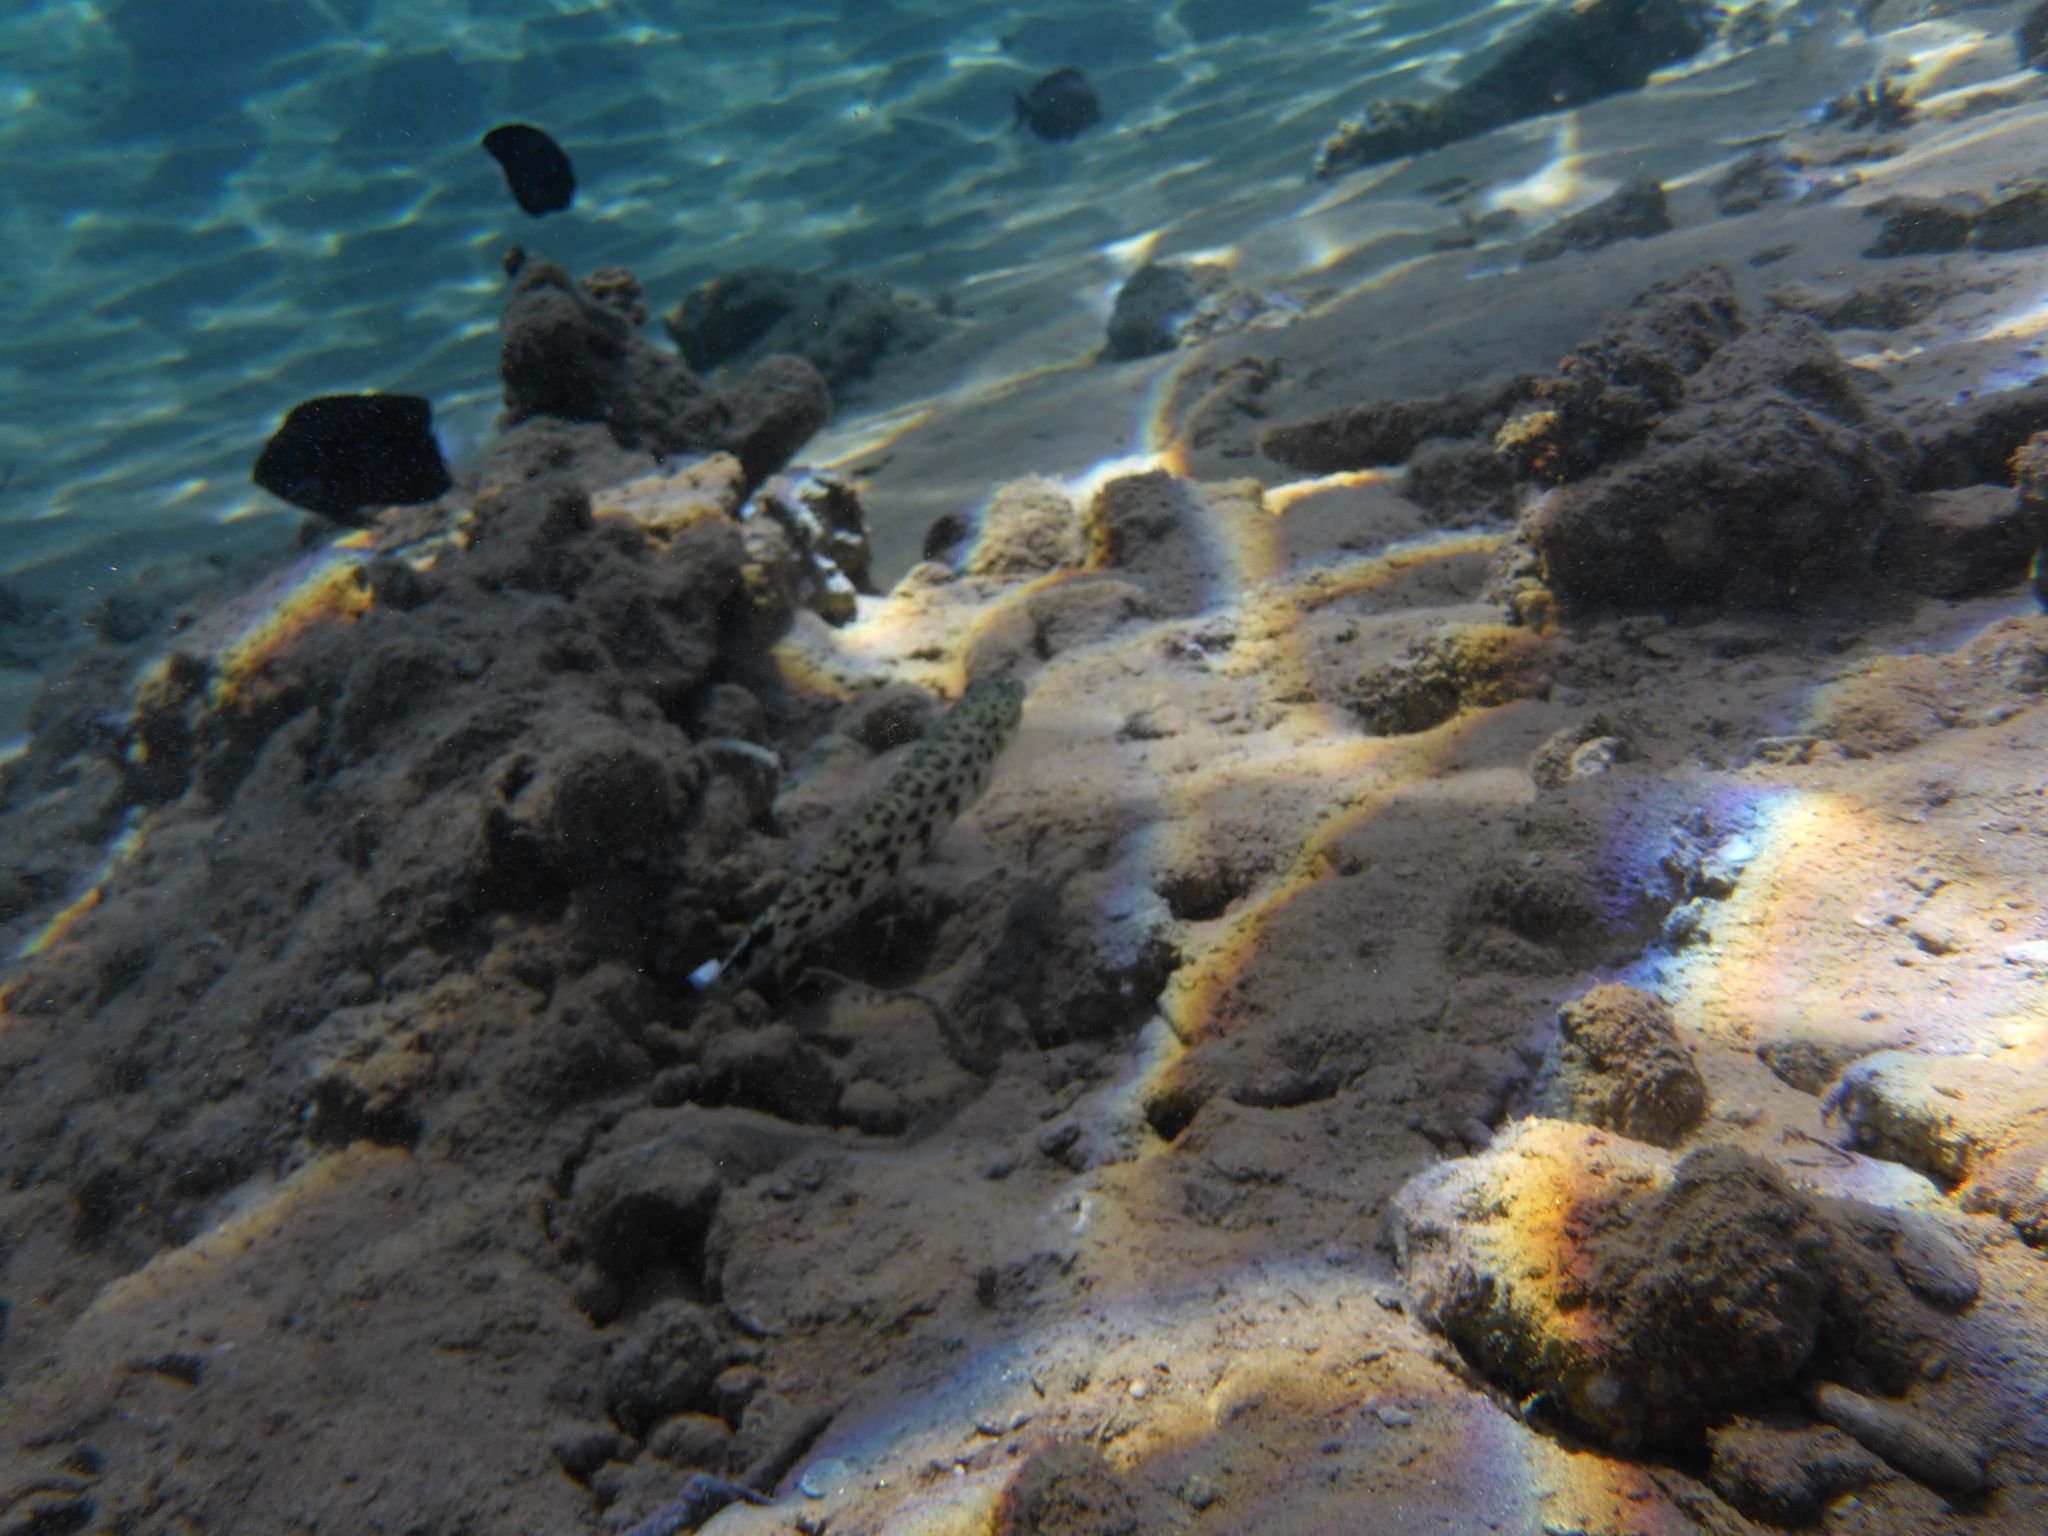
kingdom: Animalia
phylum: Chordata
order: Perciformes
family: Pinguipedidae
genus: Parapercis
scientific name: Parapercis hexophtalma
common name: Speckled sandperch
